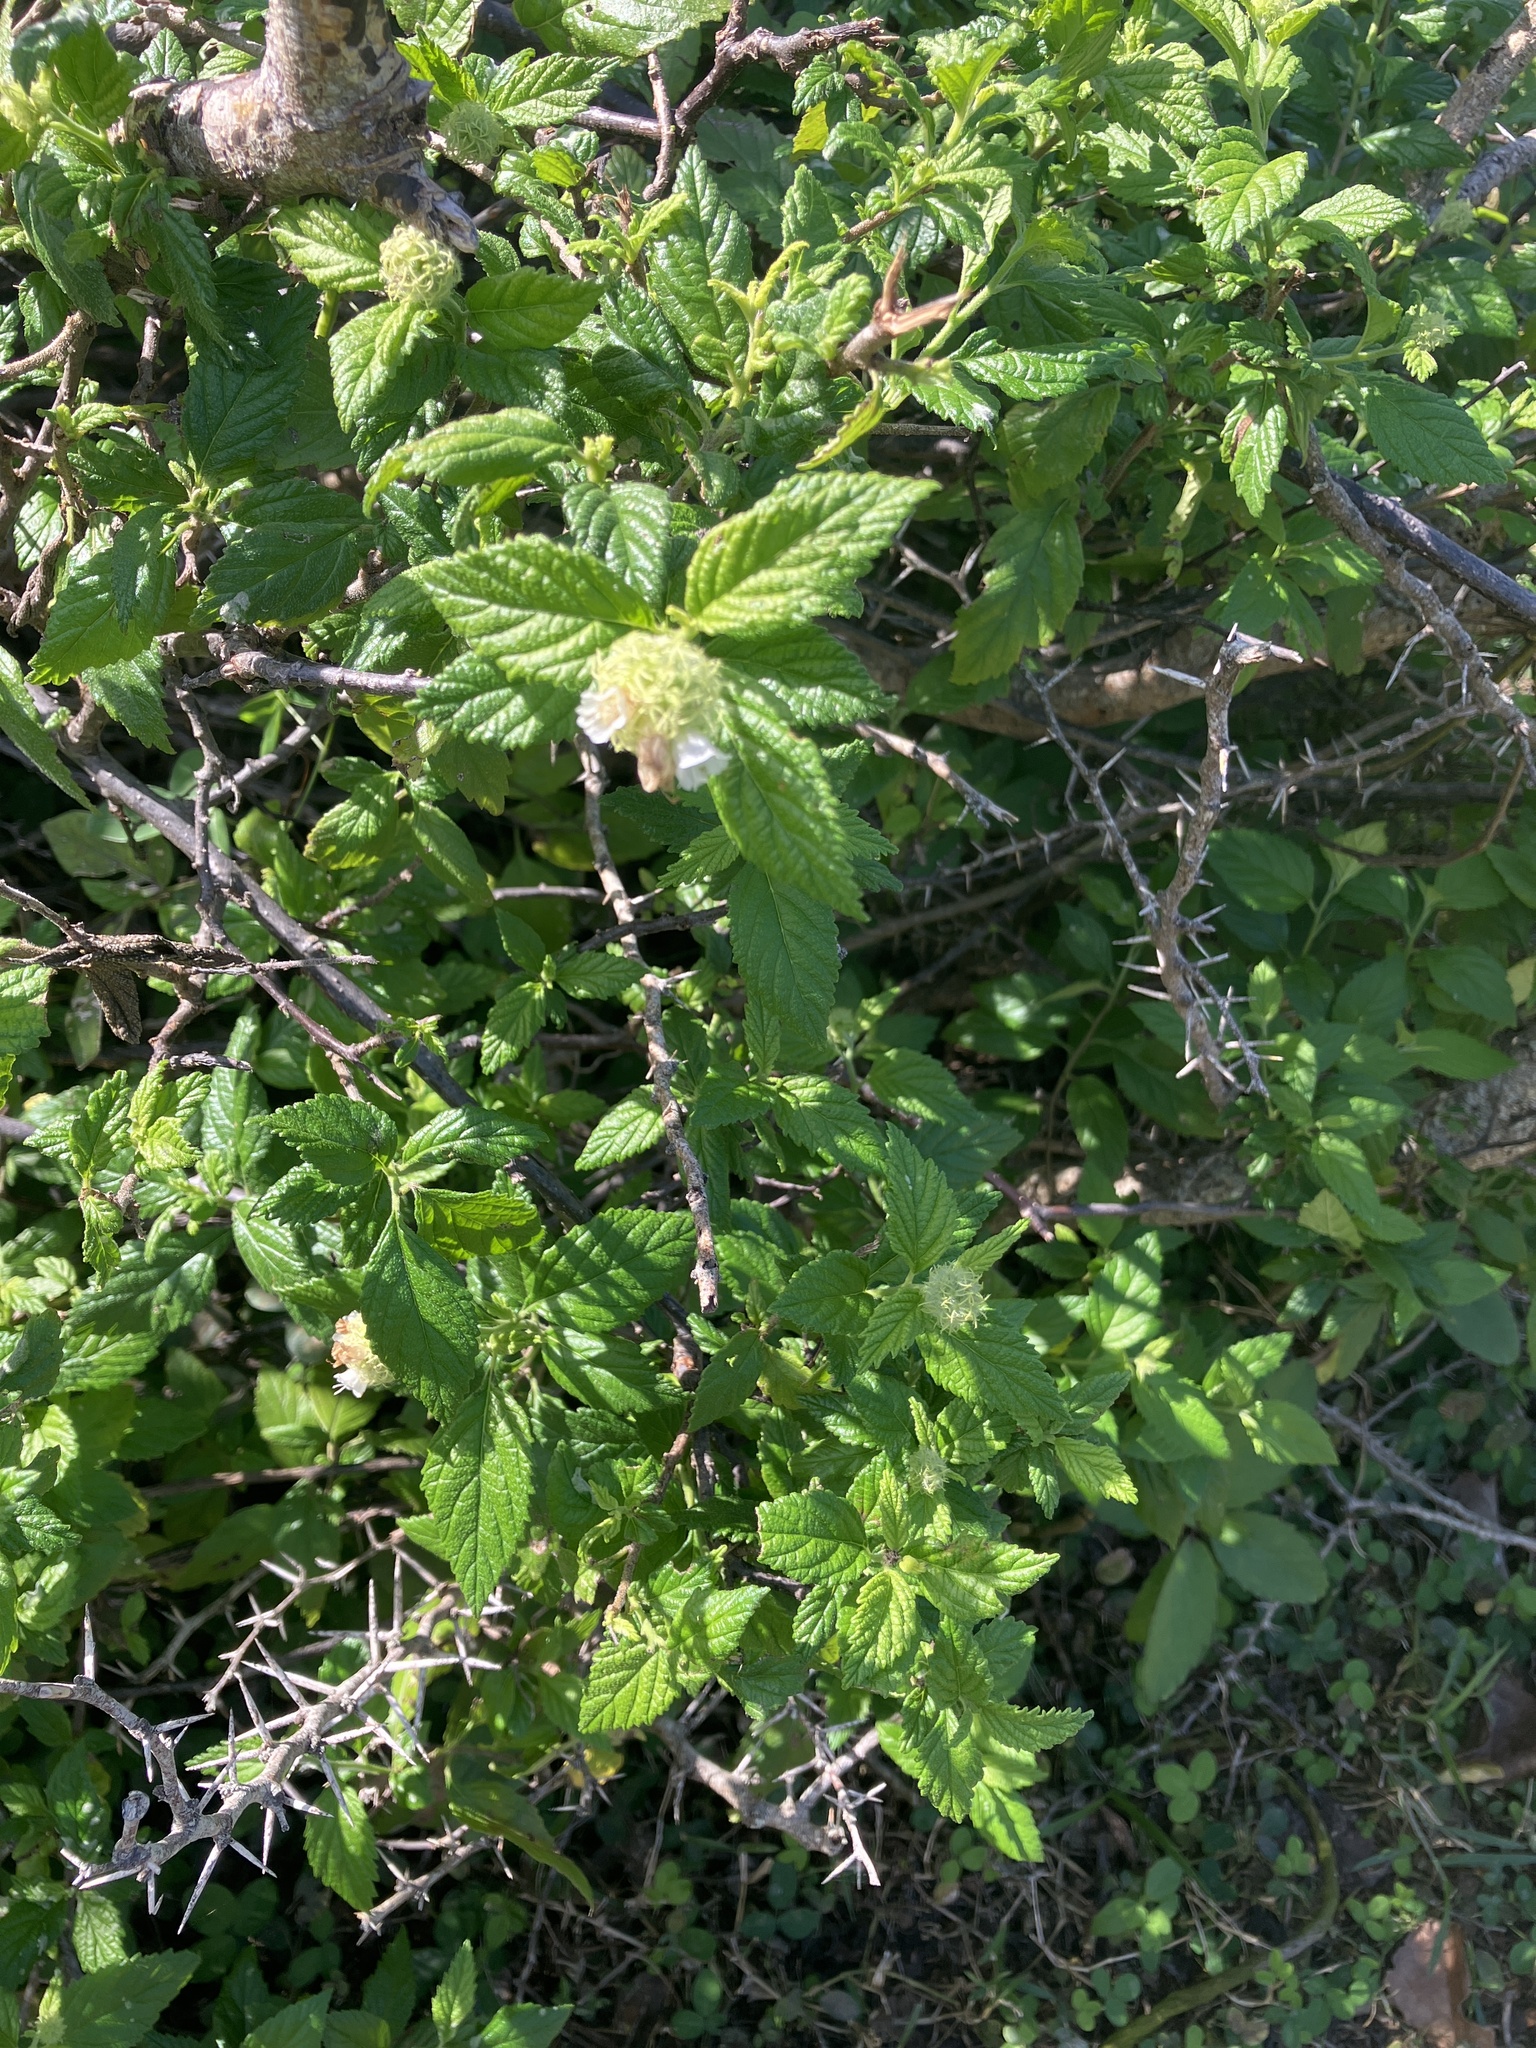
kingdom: Plantae
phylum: Tracheophyta
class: Magnoliopsida
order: Boraginales
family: Cordiaceae
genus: Varronia
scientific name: Varronia bullata
